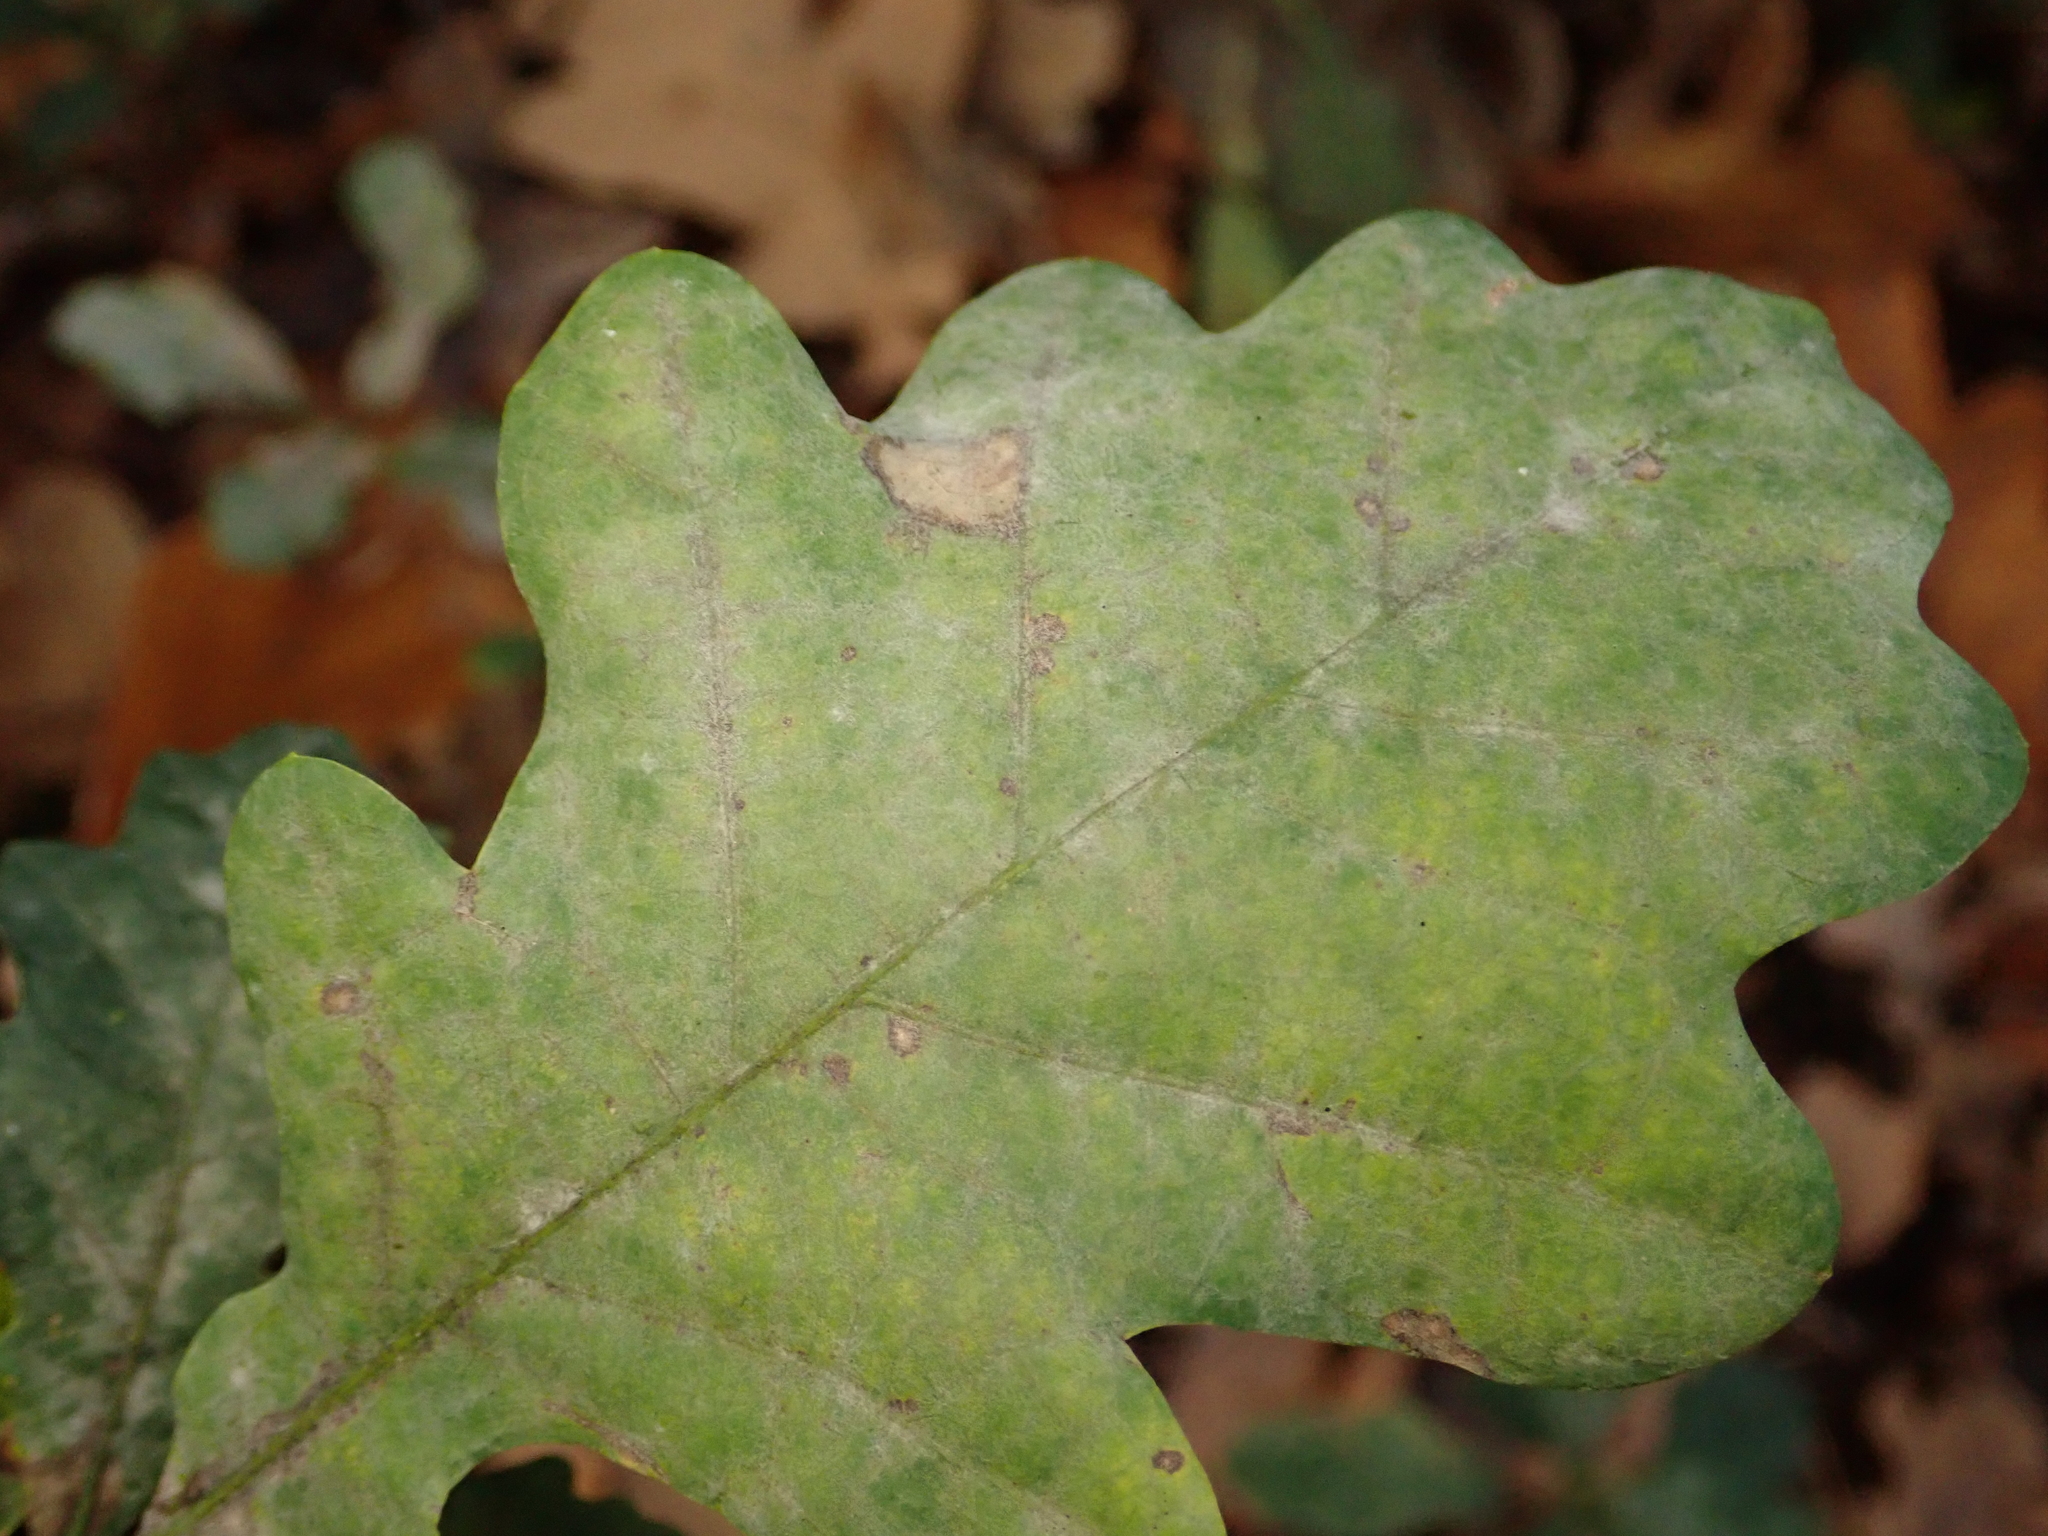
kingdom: Fungi
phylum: Ascomycota
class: Leotiomycetes
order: Helotiales
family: Erysiphaceae
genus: Erysiphe
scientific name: Erysiphe
